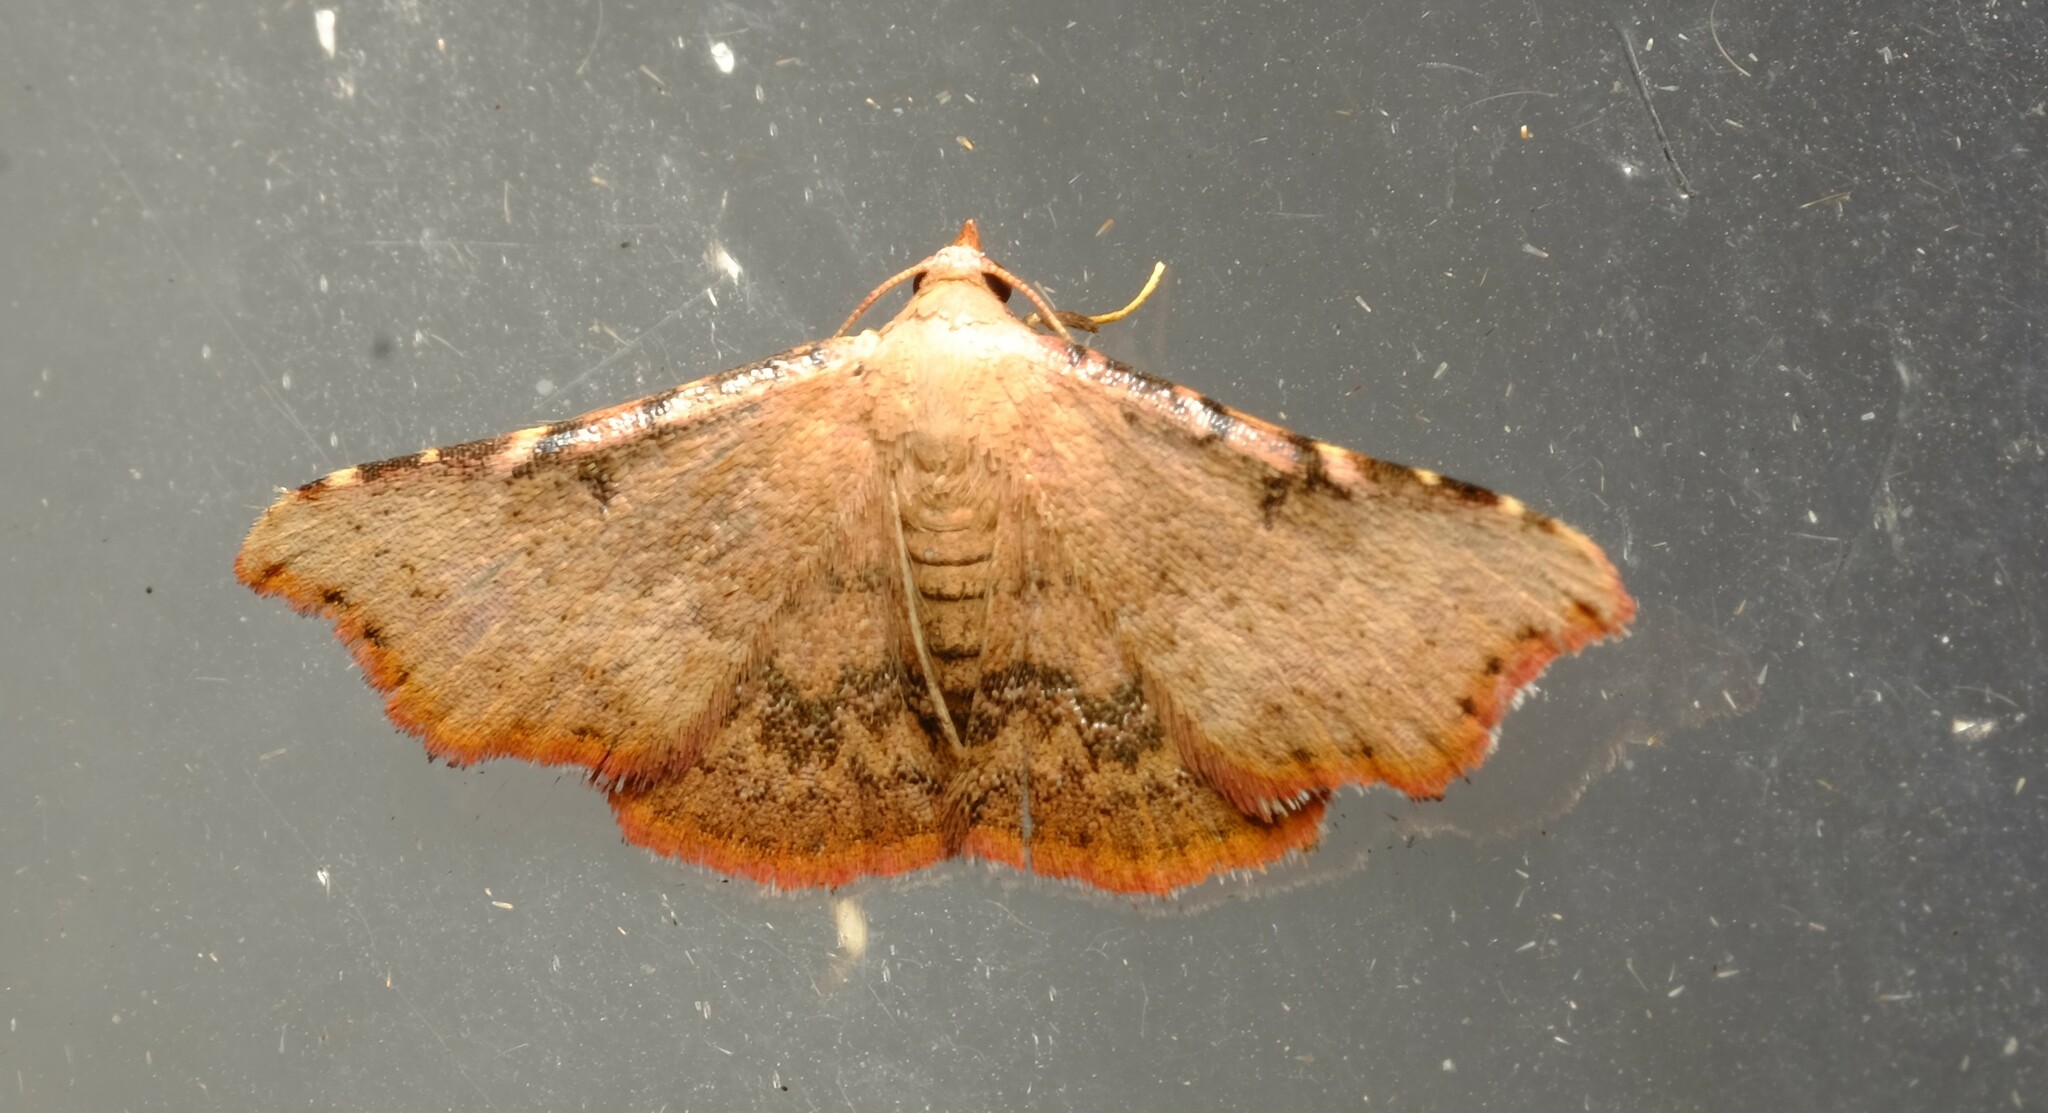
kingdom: Animalia
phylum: Arthropoda
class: Insecta
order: Lepidoptera
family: Erebidae
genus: Corgatha
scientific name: Corgatha dipyra
